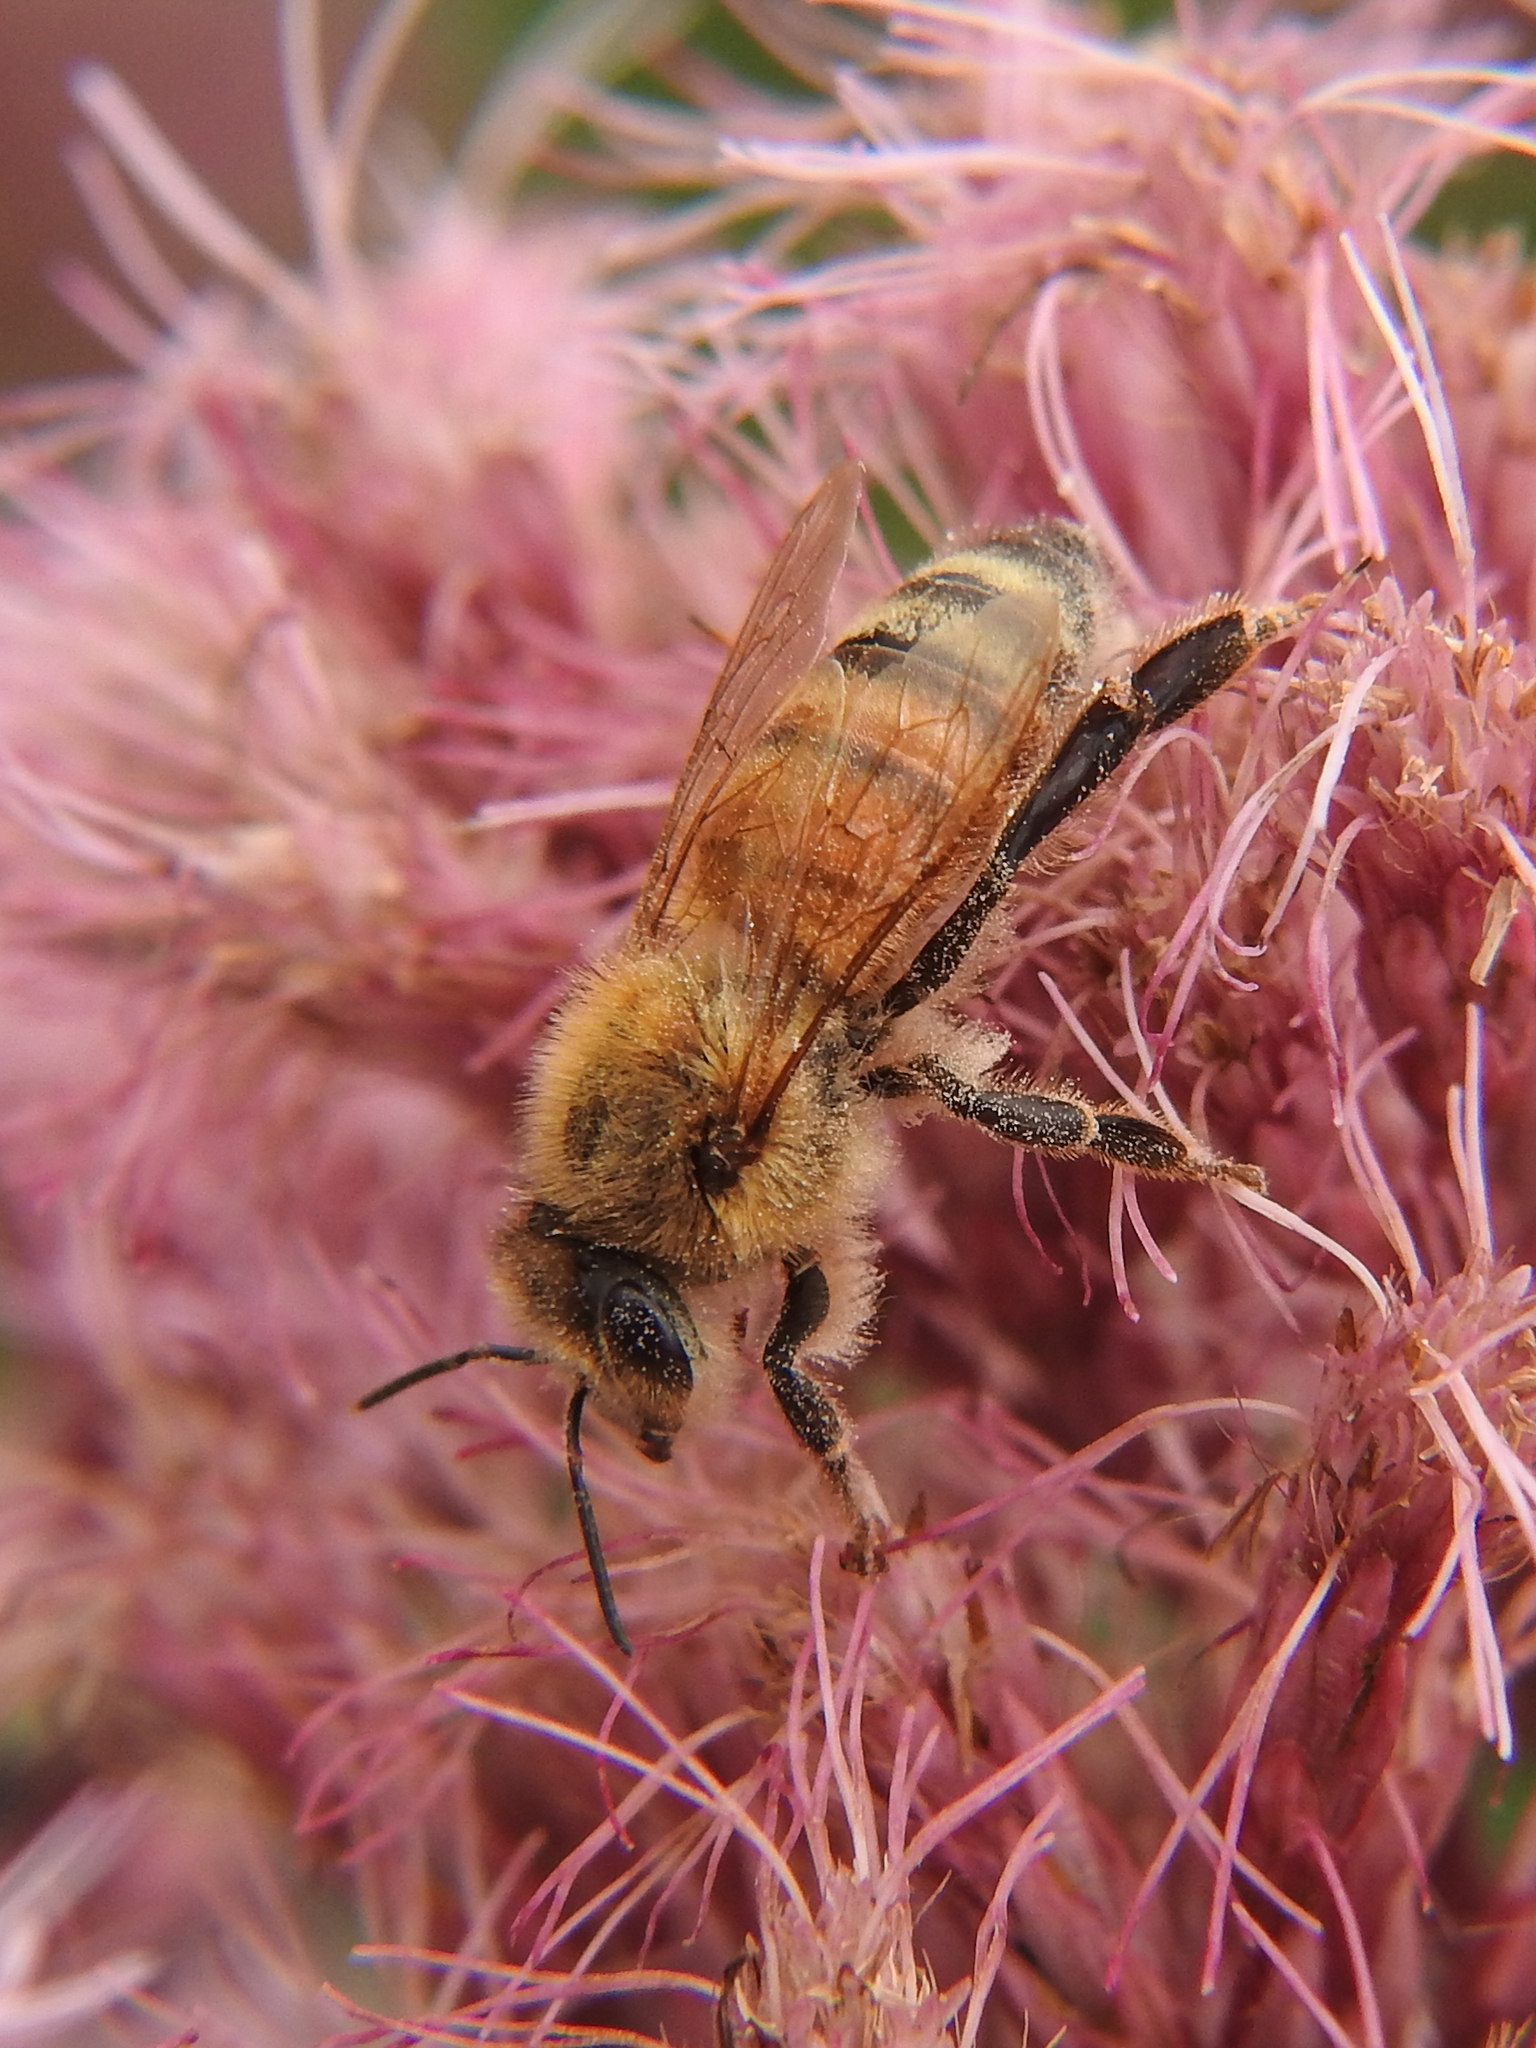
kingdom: Animalia
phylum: Arthropoda
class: Insecta
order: Hymenoptera
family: Apidae
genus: Apis
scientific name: Apis mellifera
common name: Honey bee
